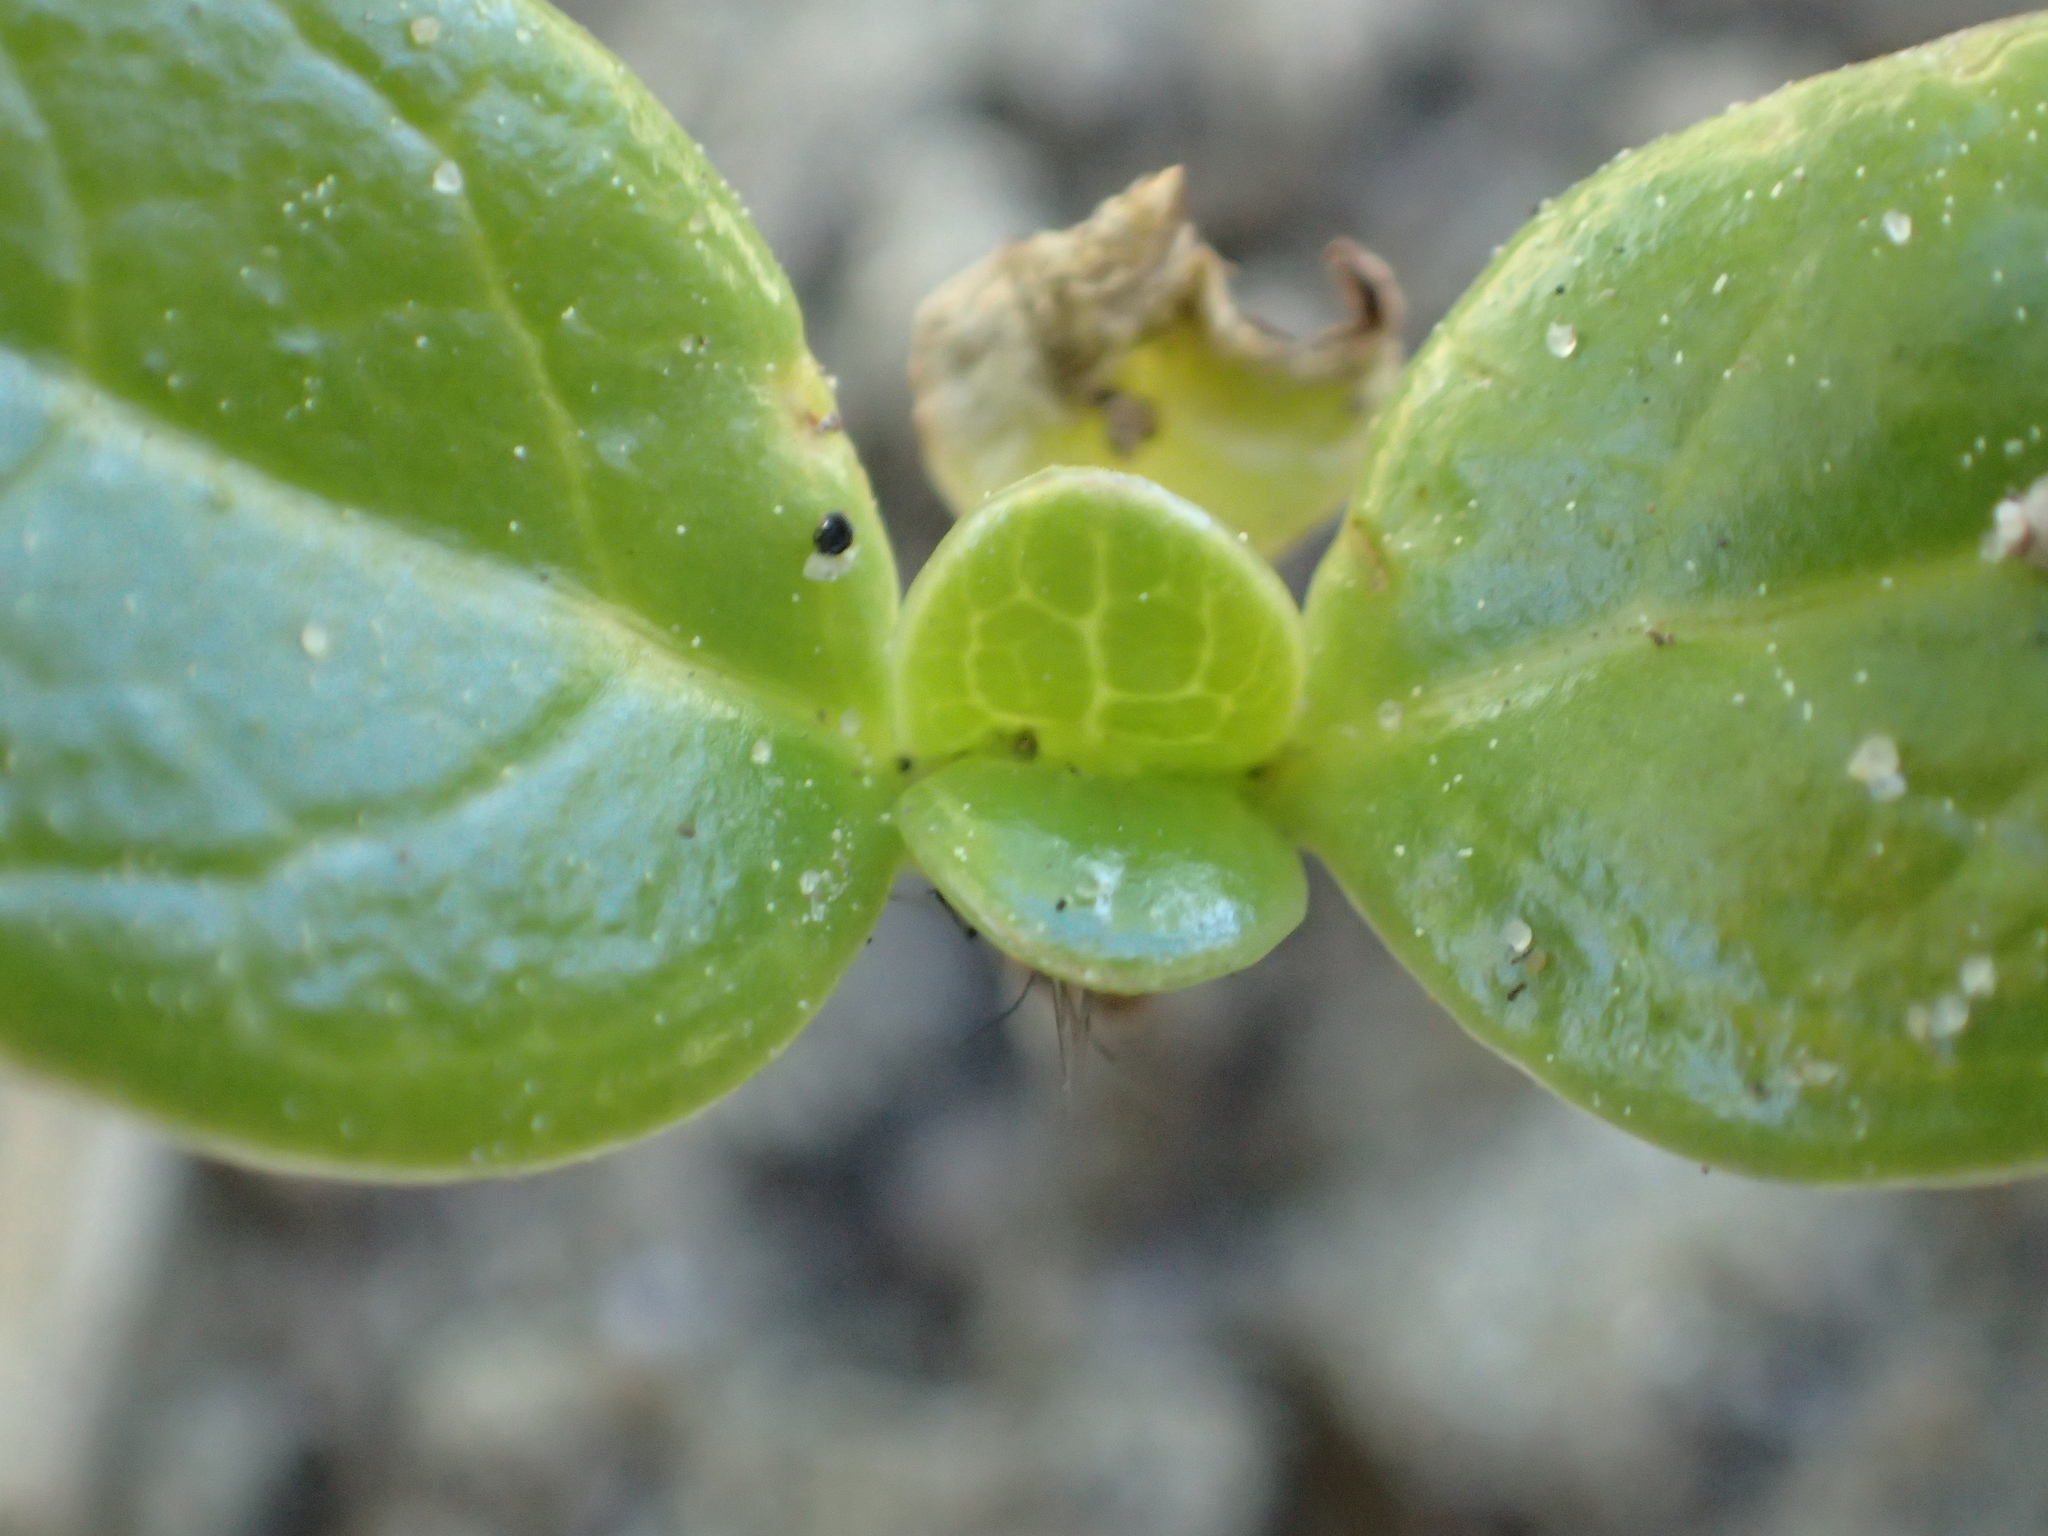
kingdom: Plantae
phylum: Tracheophyta
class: Magnoliopsida
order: Gentianales
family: Rubiaceae
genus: Coprosma
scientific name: Coprosma repens
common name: Tree bedstraw
